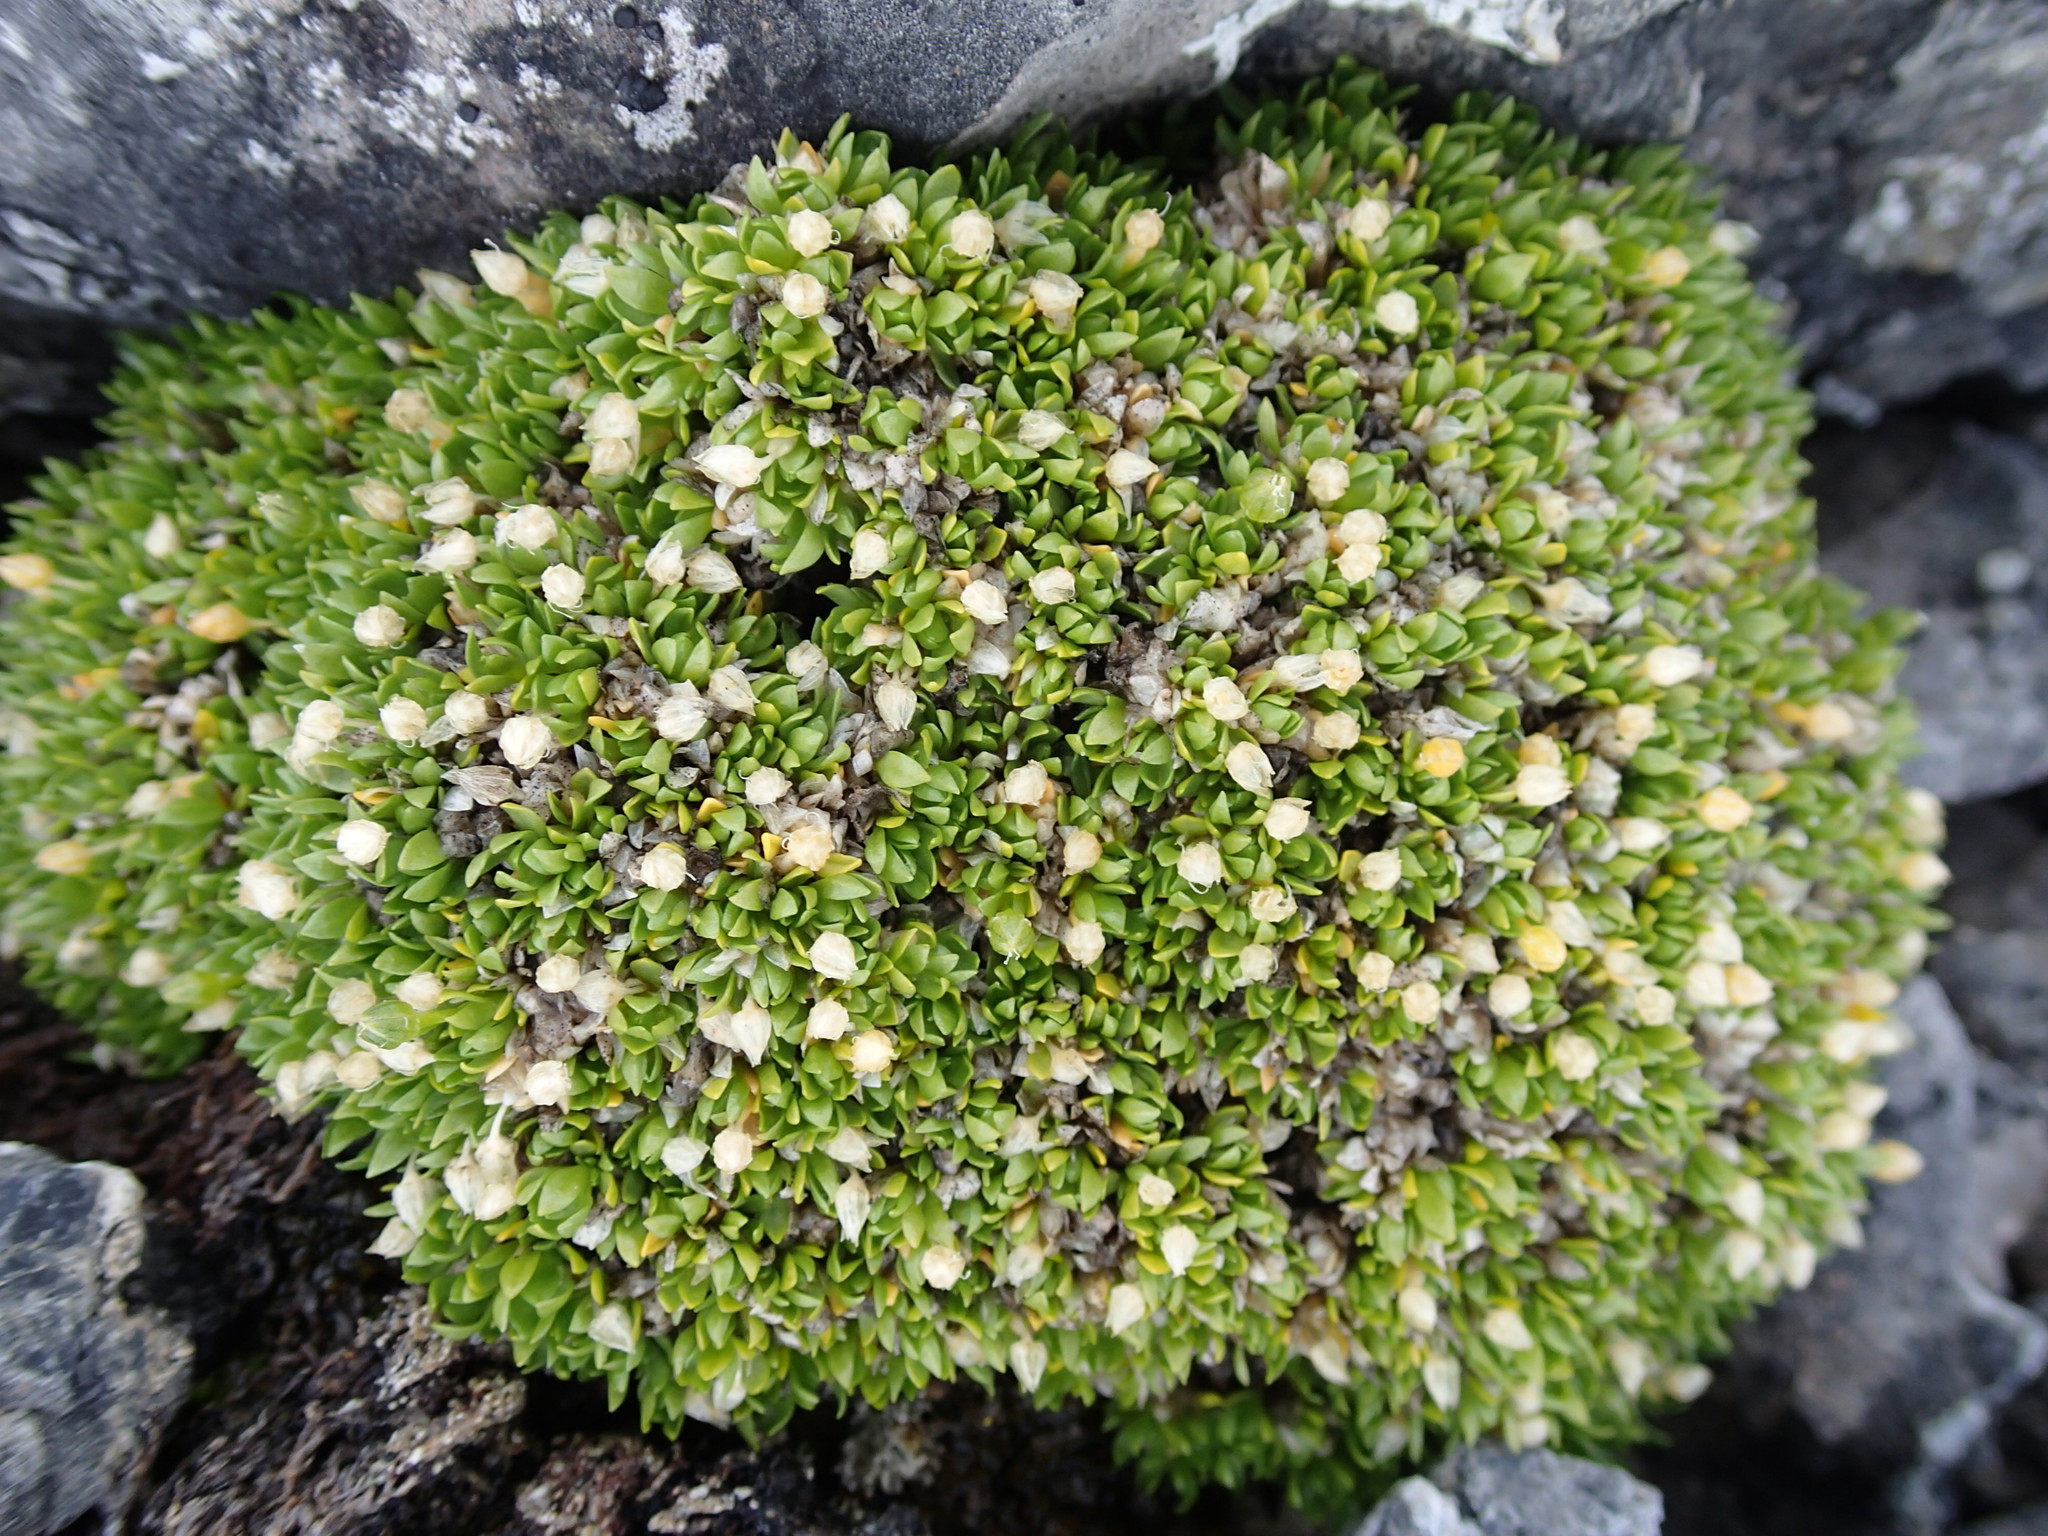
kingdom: Plantae
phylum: Tracheophyta
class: Magnoliopsida
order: Caryophyllales
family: Caryophyllaceae
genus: Stellaria
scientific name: Stellaria dicranoides
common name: Chamisso's starwort
